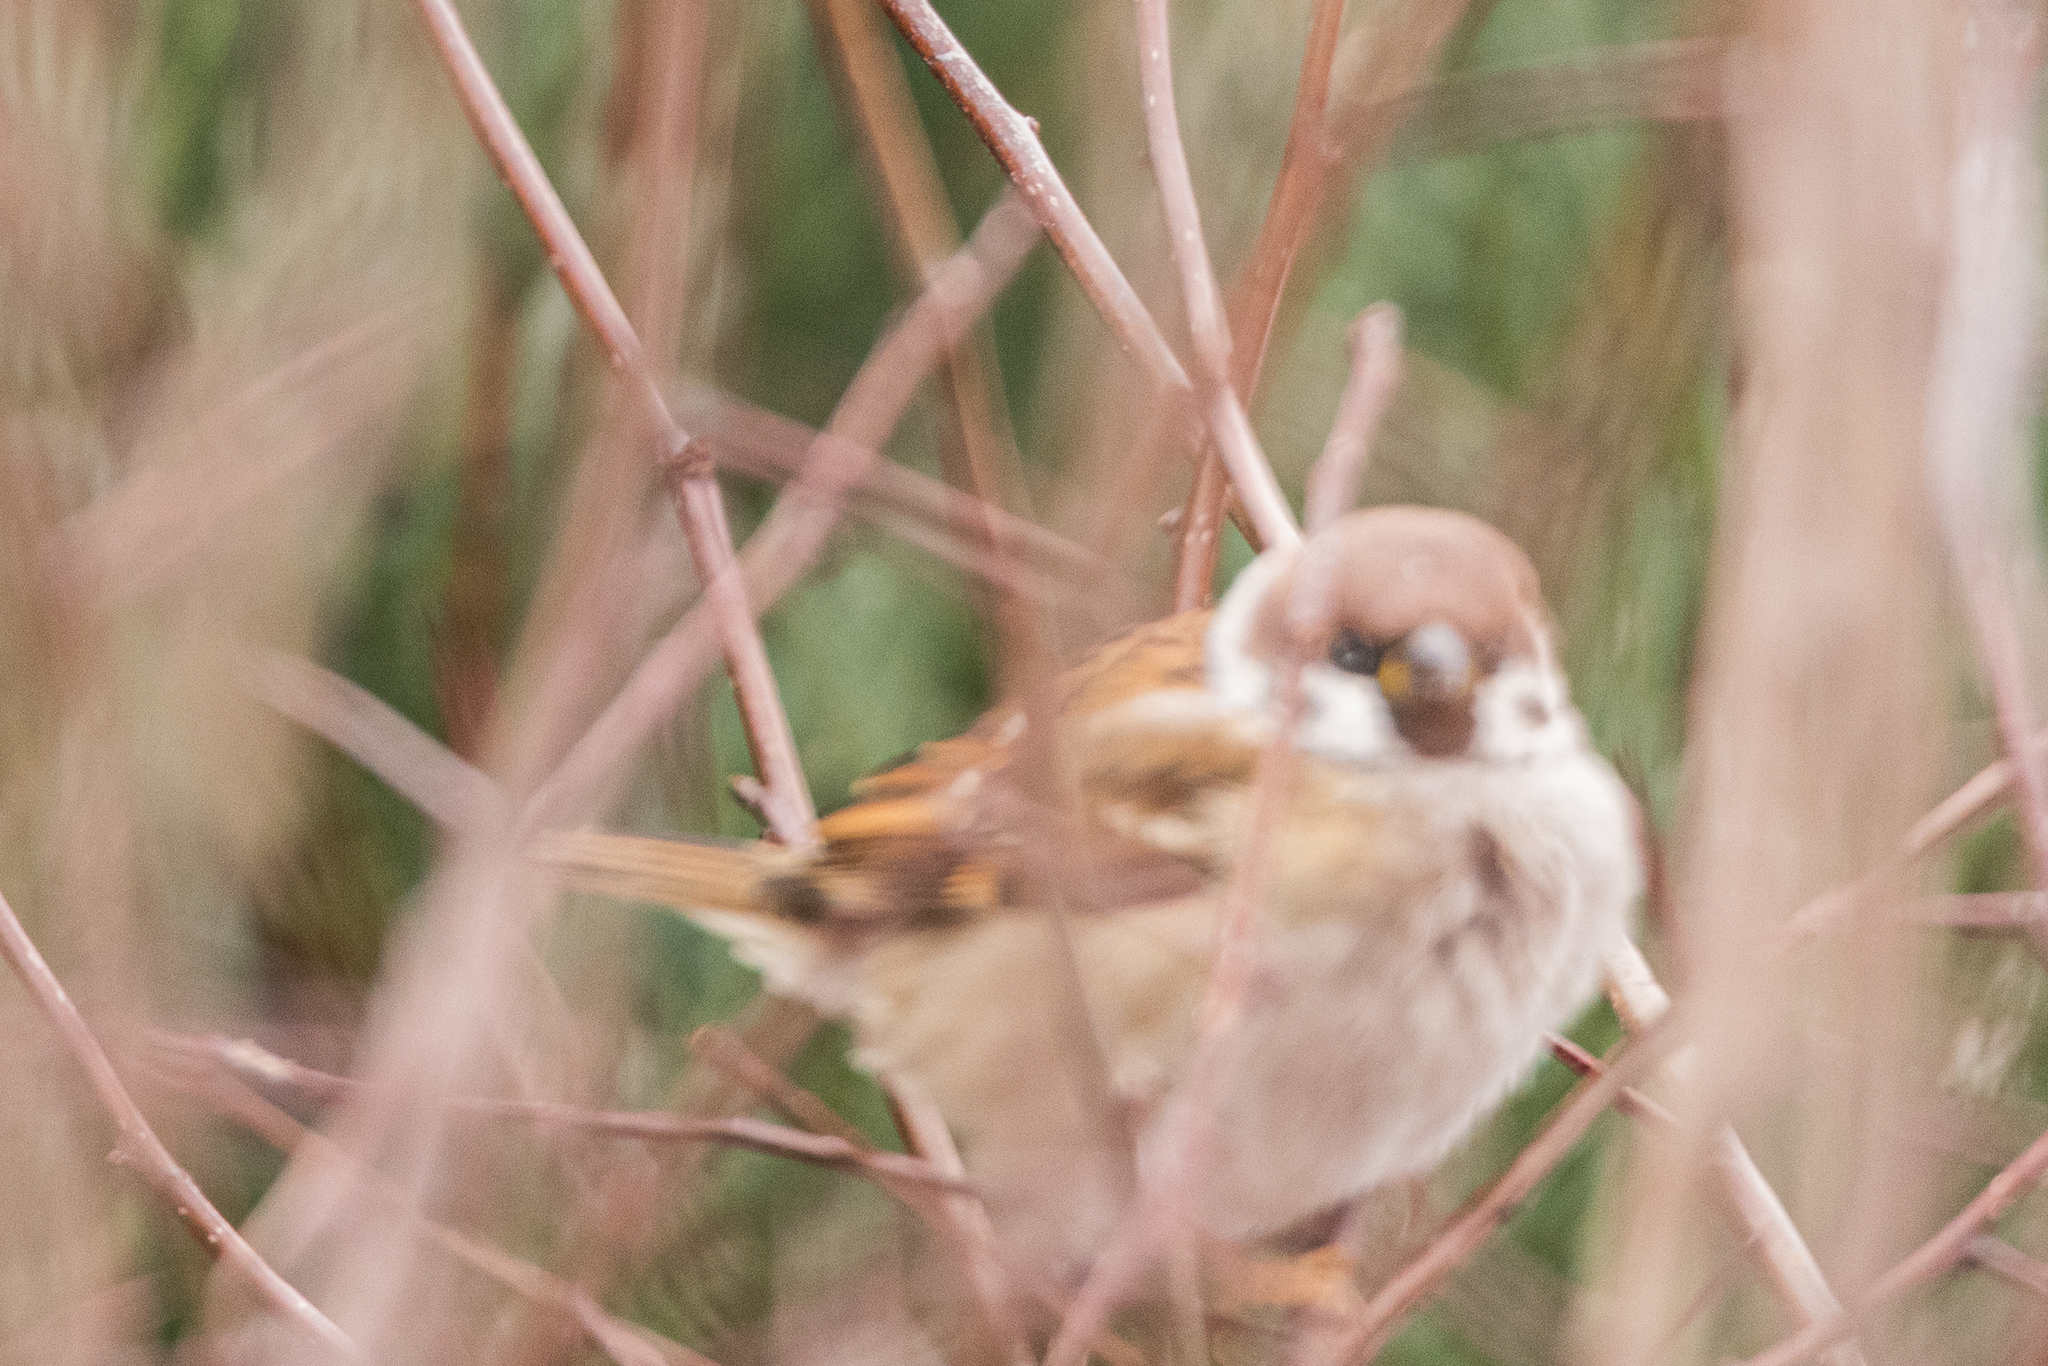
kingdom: Animalia
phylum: Chordata
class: Aves
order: Passeriformes
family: Passeridae
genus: Passer
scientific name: Passer montanus
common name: Eurasian tree sparrow
